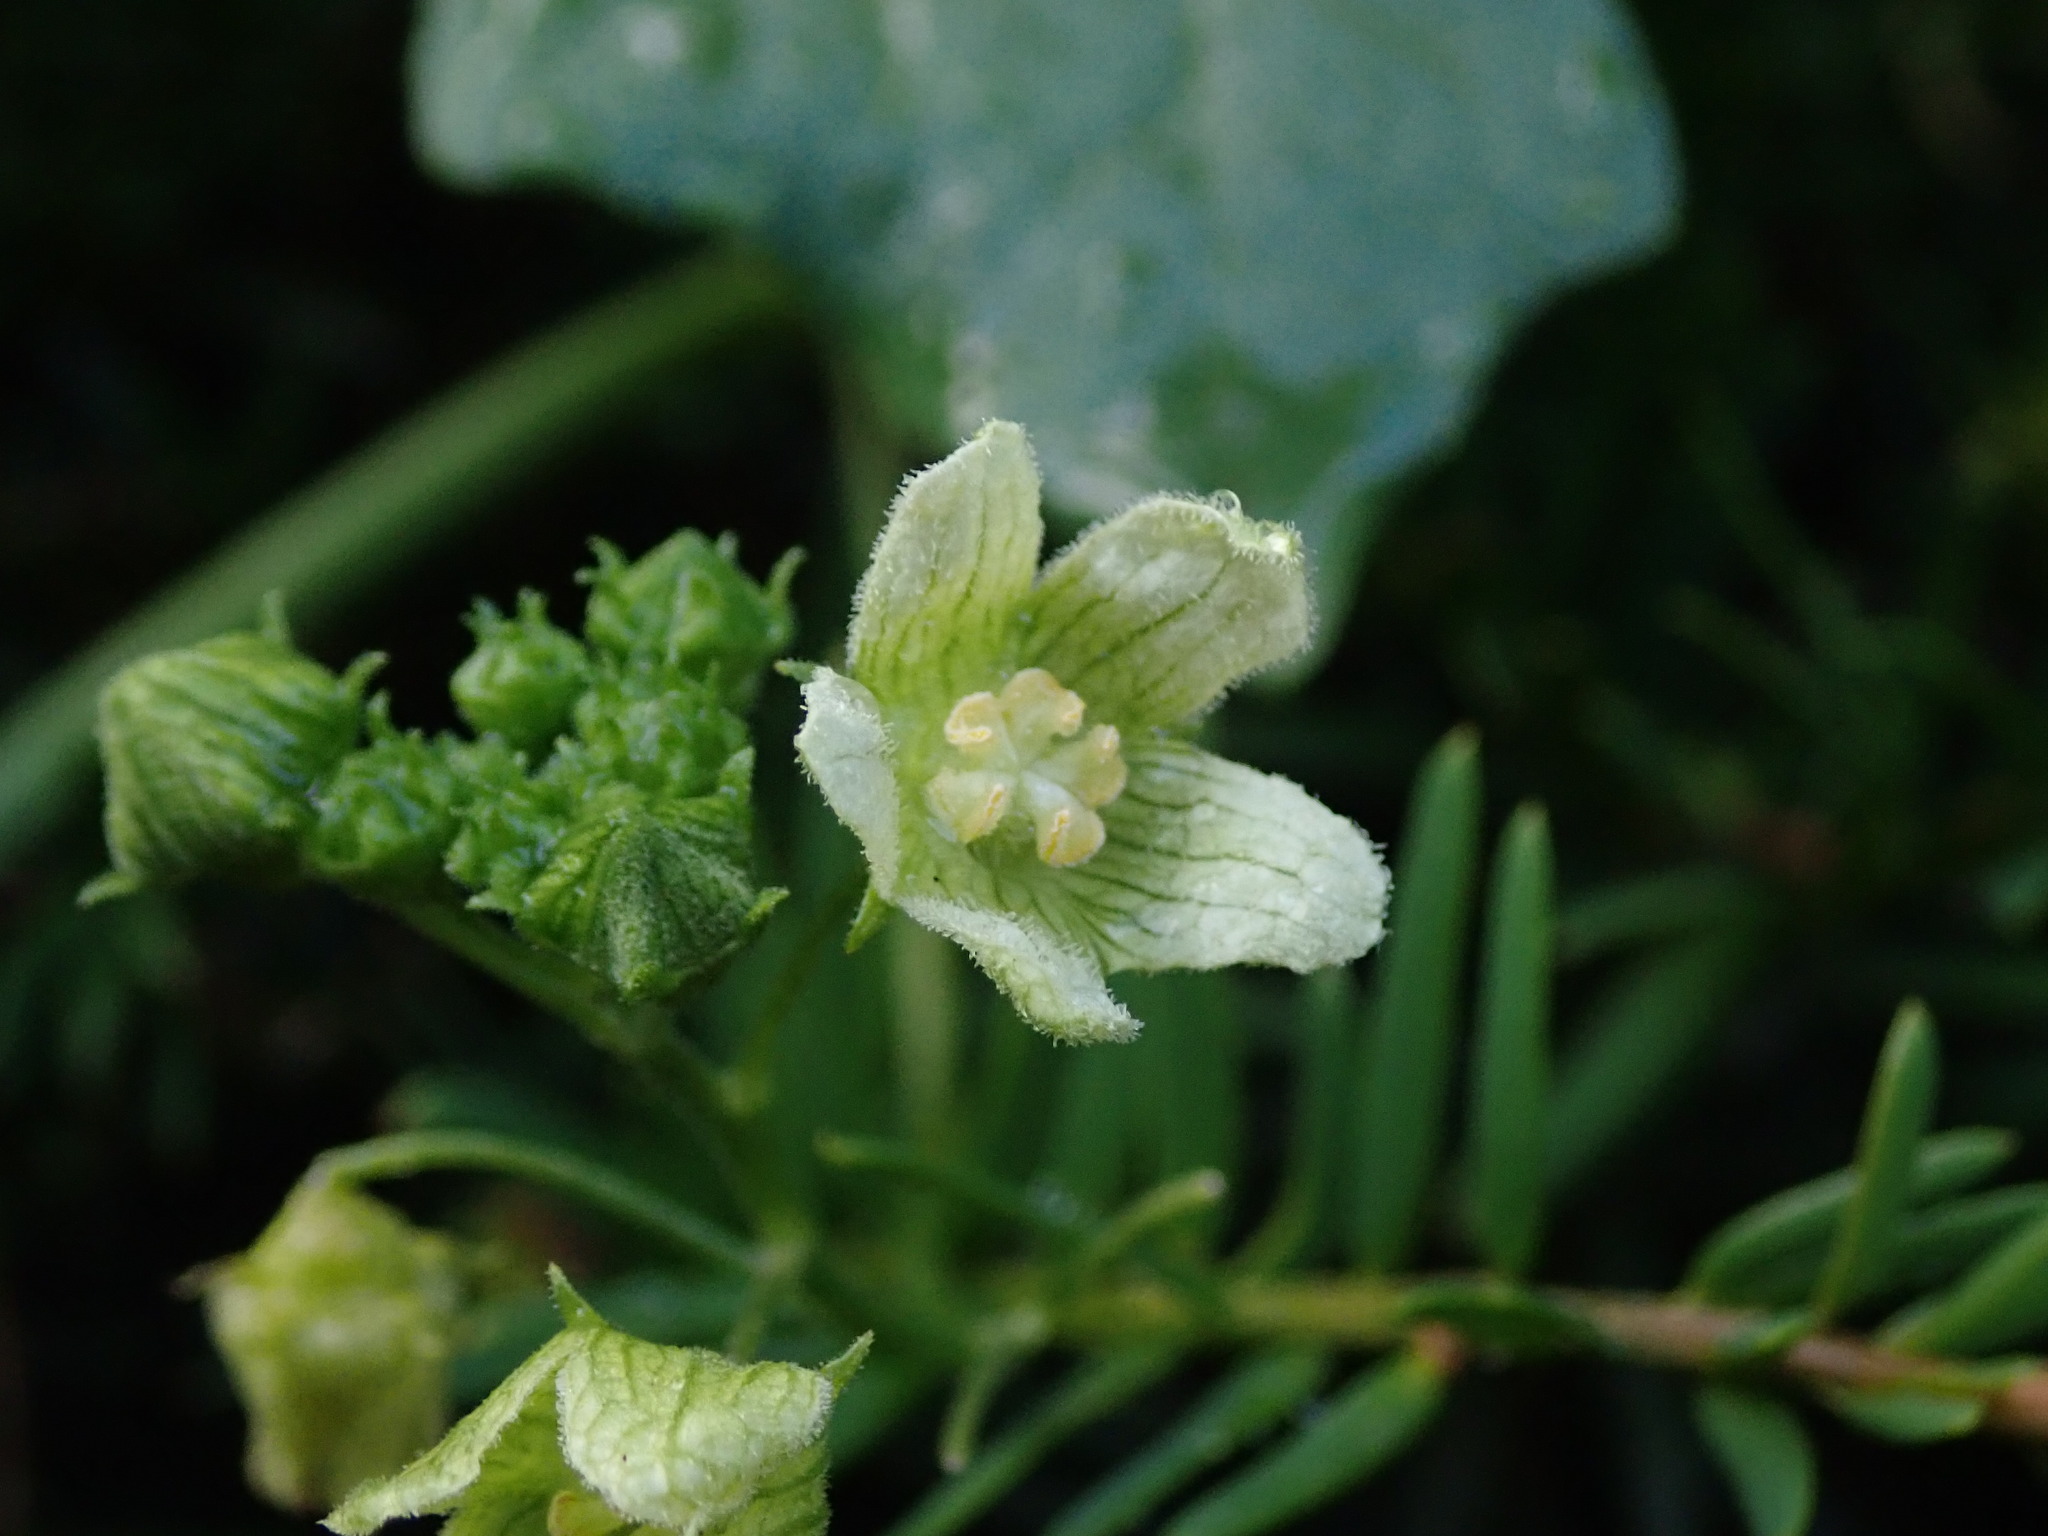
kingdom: Plantae
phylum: Tracheophyta
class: Magnoliopsida
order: Cucurbitales
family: Cucurbitaceae
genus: Bryonia
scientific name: Bryonia cretica
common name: Cretan bryony
